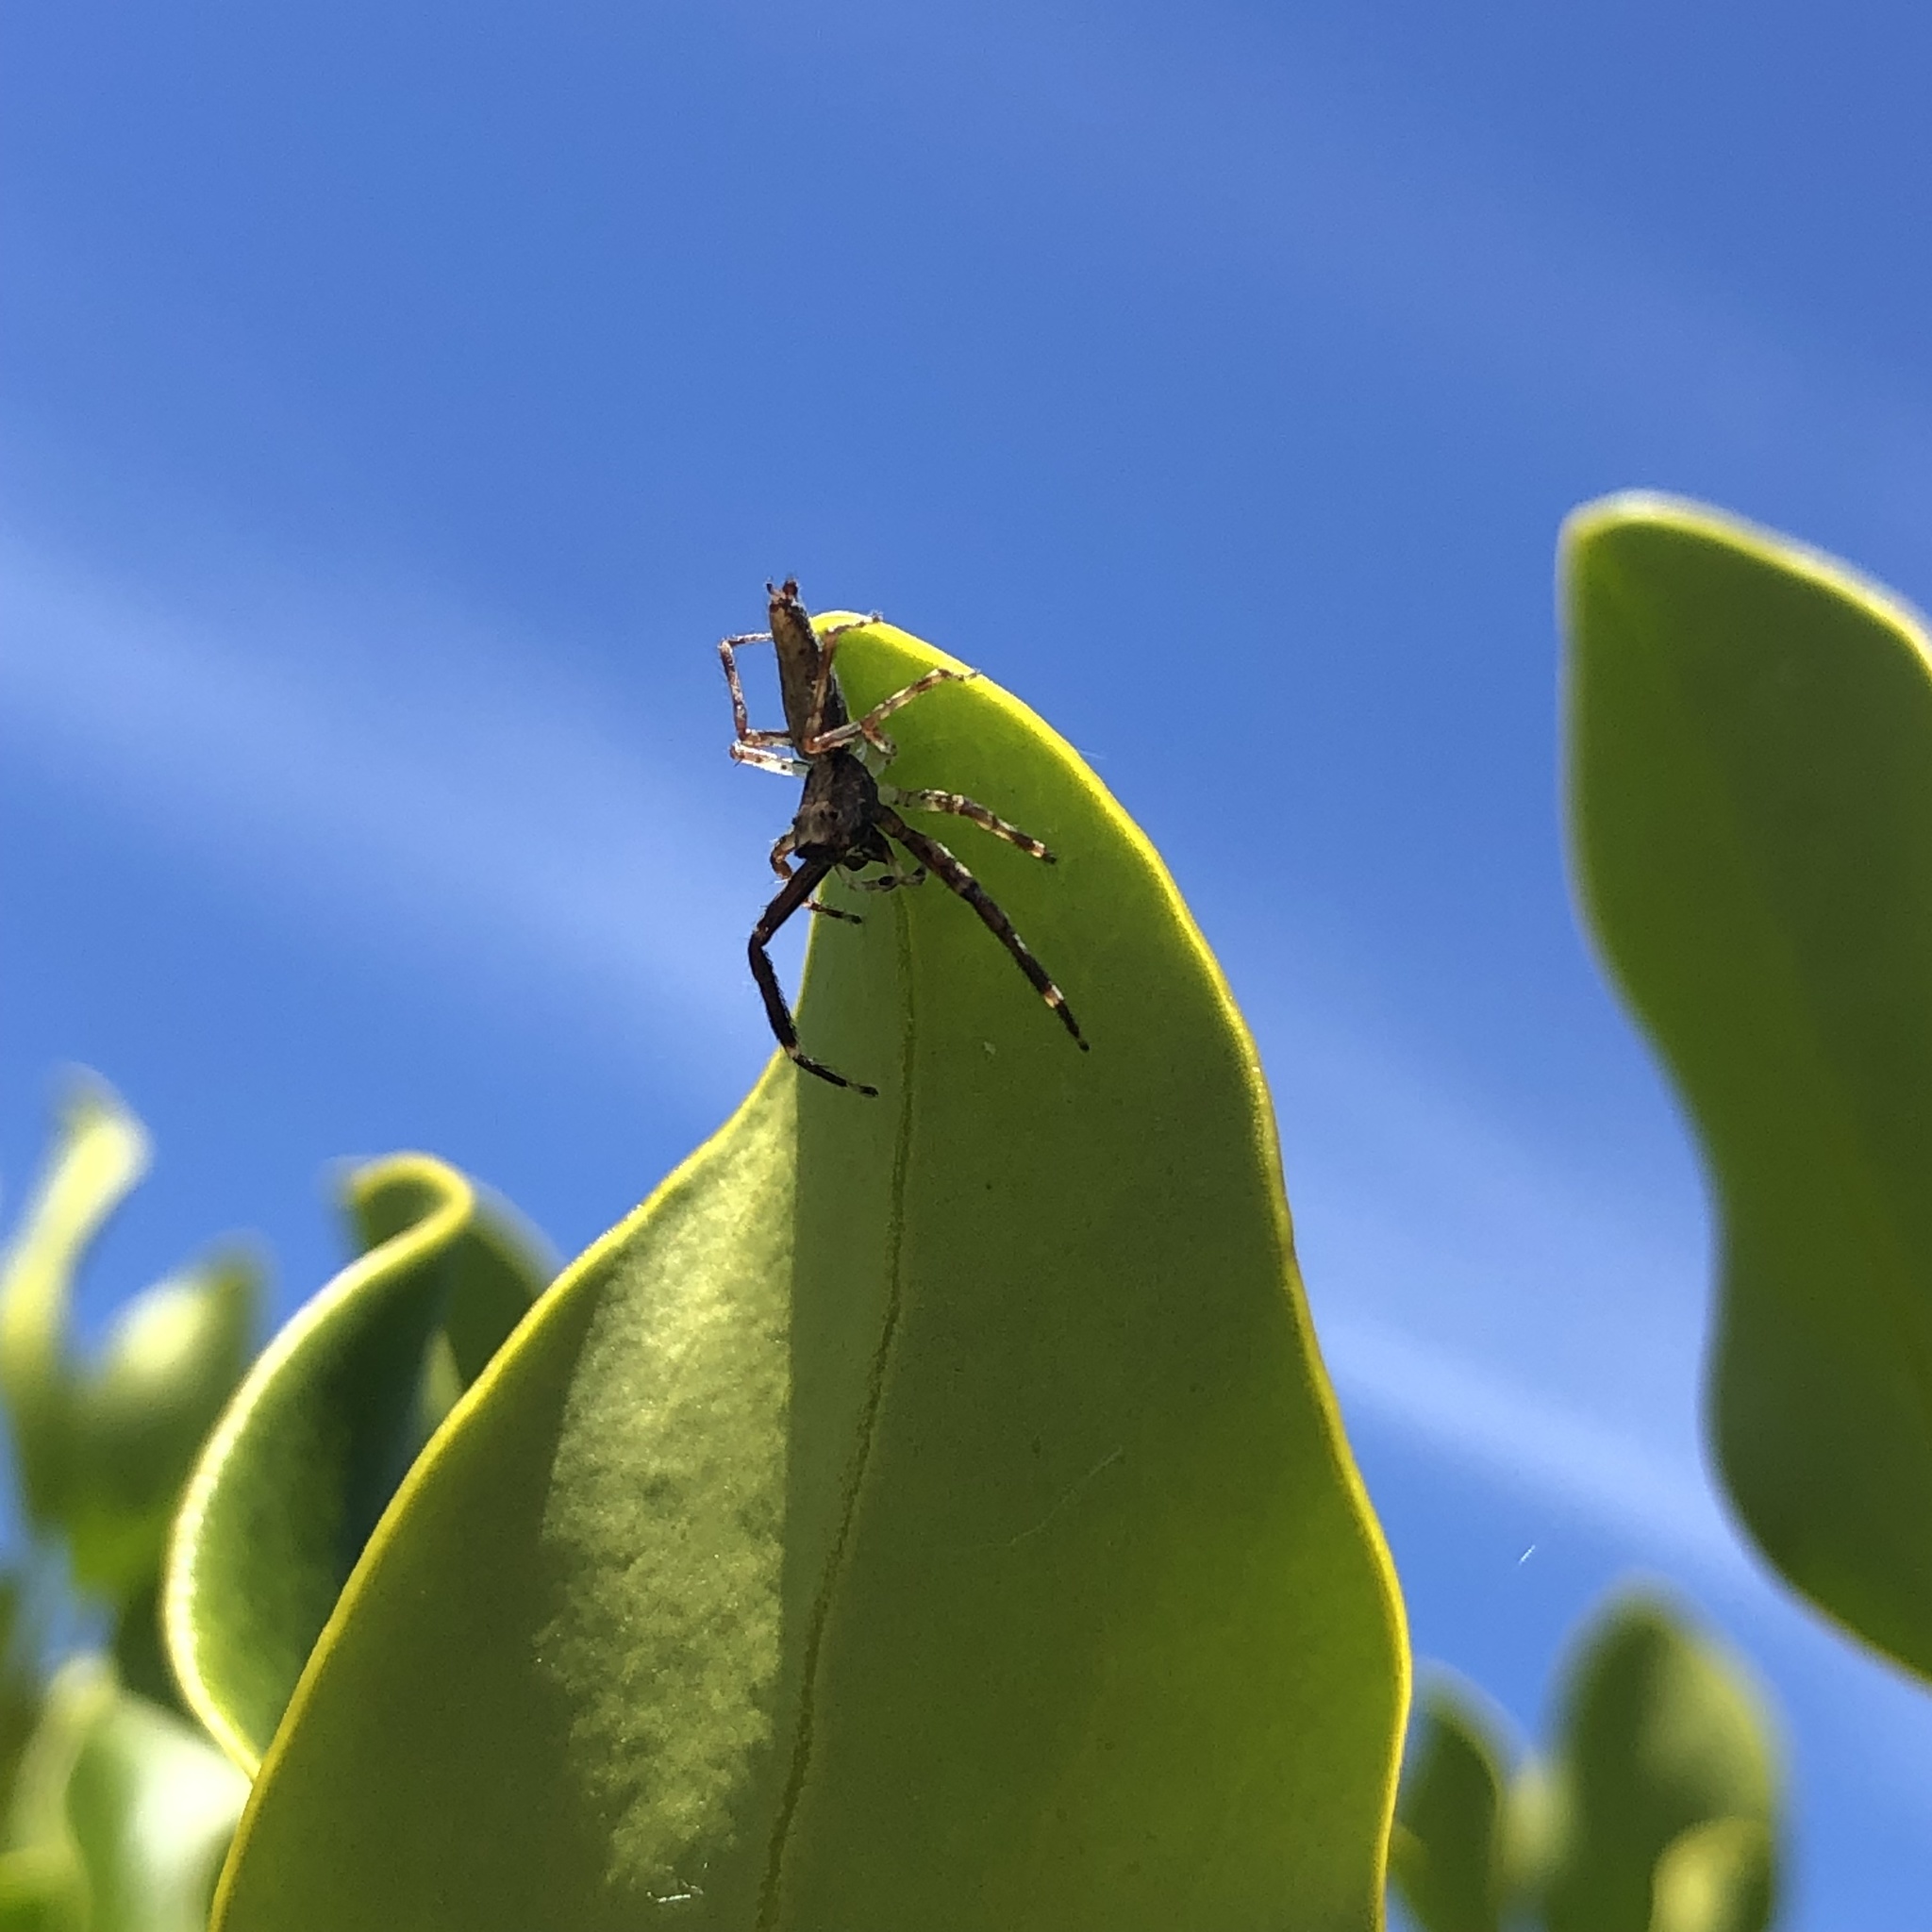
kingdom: Animalia
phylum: Arthropoda
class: Arachnida
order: Araneae
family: Salticidae
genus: Helpis
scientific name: Helpis minitabunda
